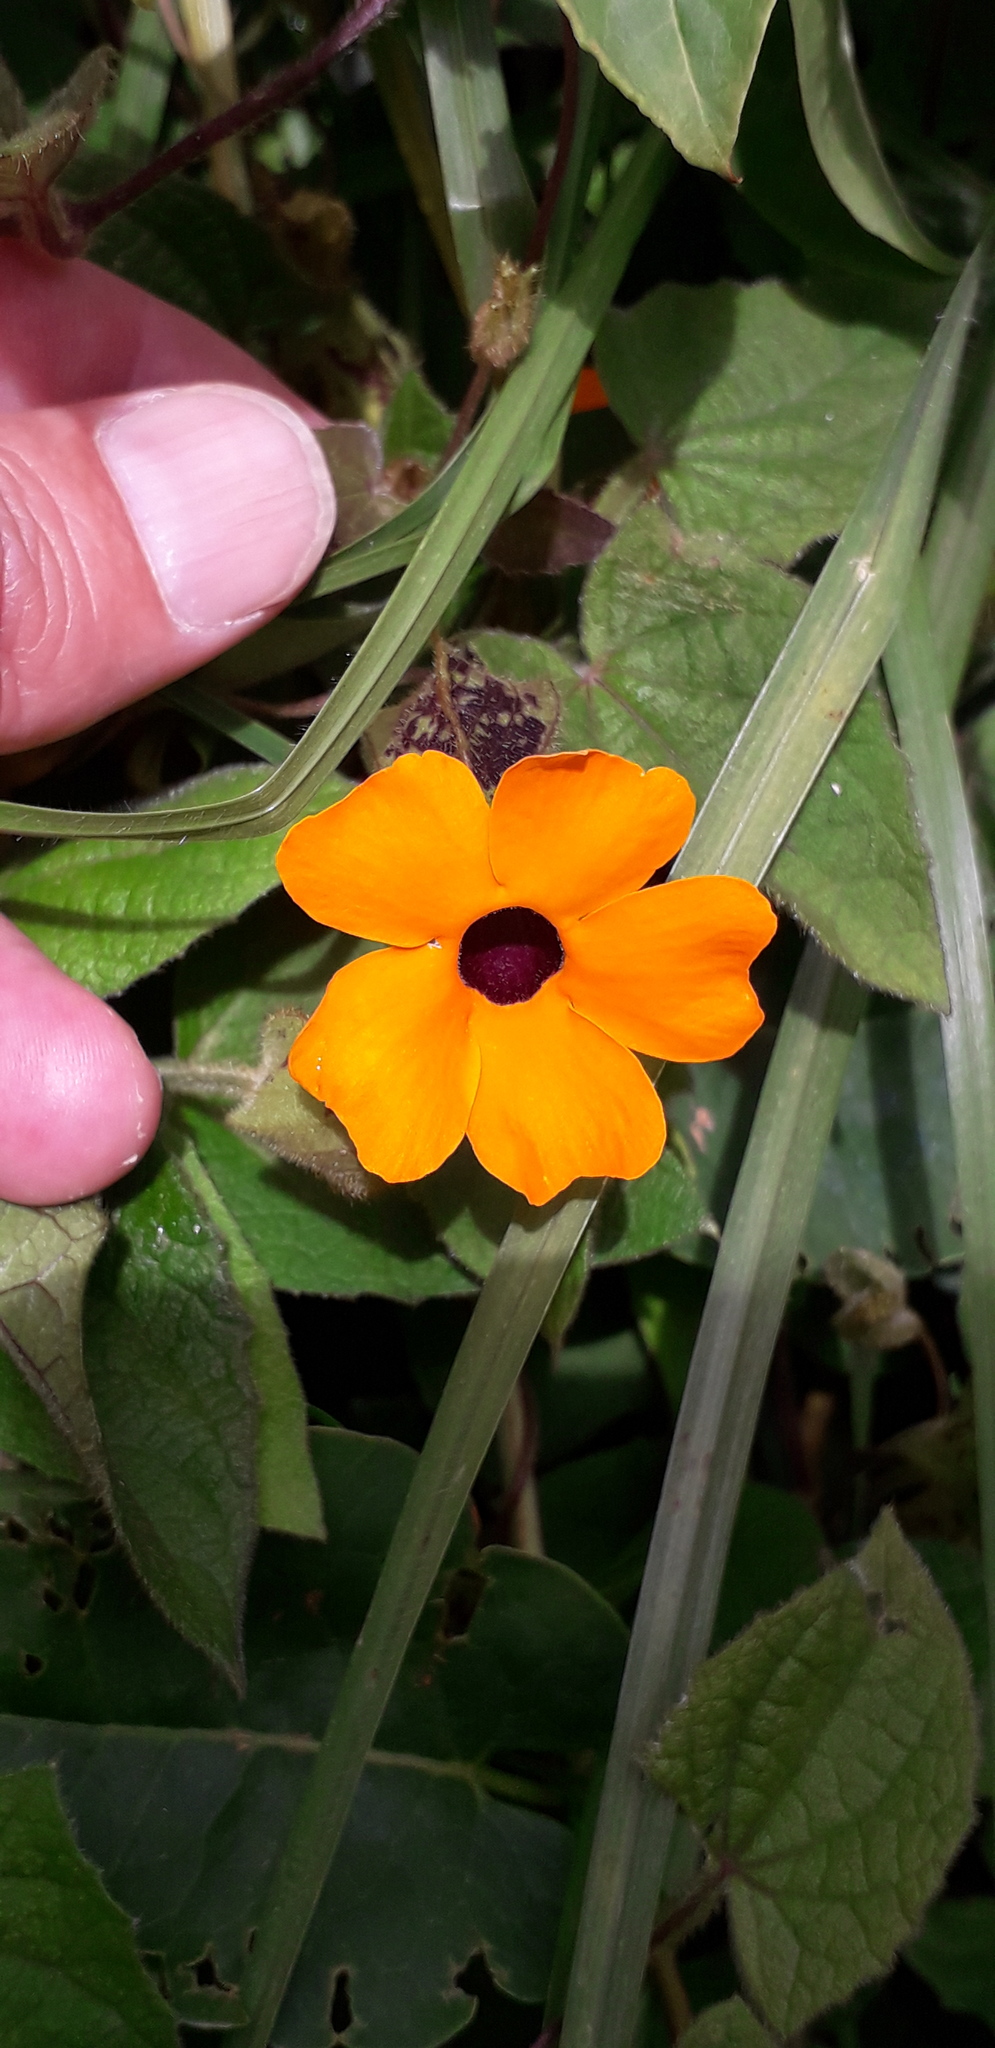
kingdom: Plantae
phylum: Tracheophyta
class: Magnoliopsida
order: Lamiales
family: Acanthaceae
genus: Thunbergia
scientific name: Thunbergia alata
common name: Blackeyed susan vine
